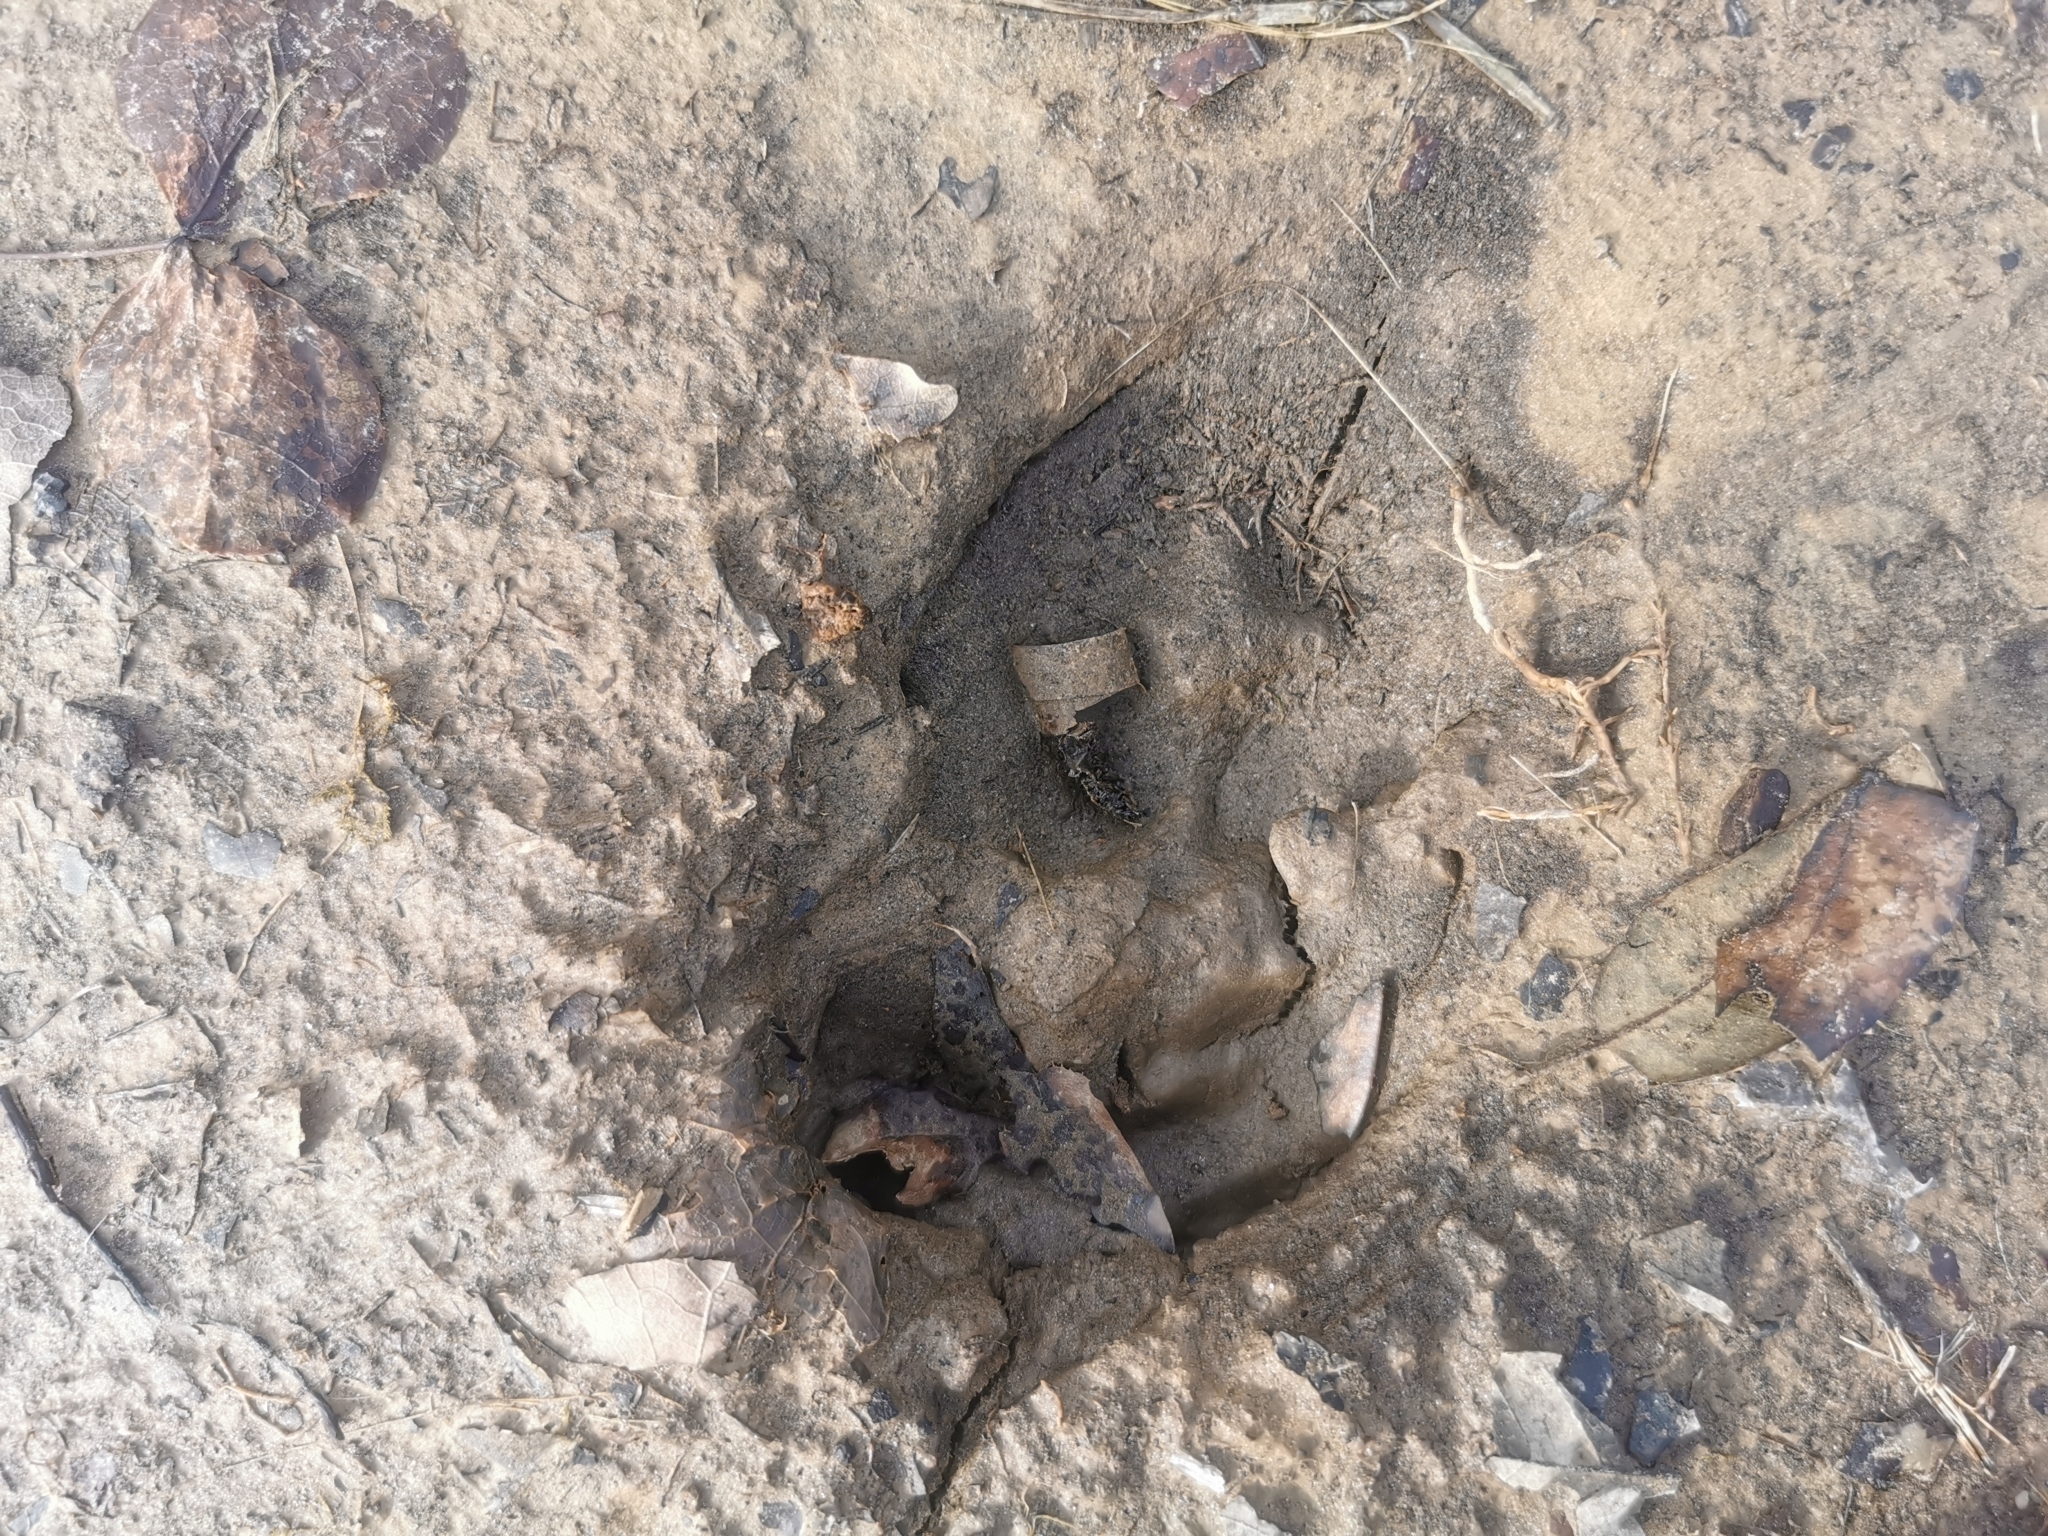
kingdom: Animalia
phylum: Chordata
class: Mammalia
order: Artiodactyla
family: Suidae
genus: Sus
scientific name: Sus scrofa
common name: Wild boar
